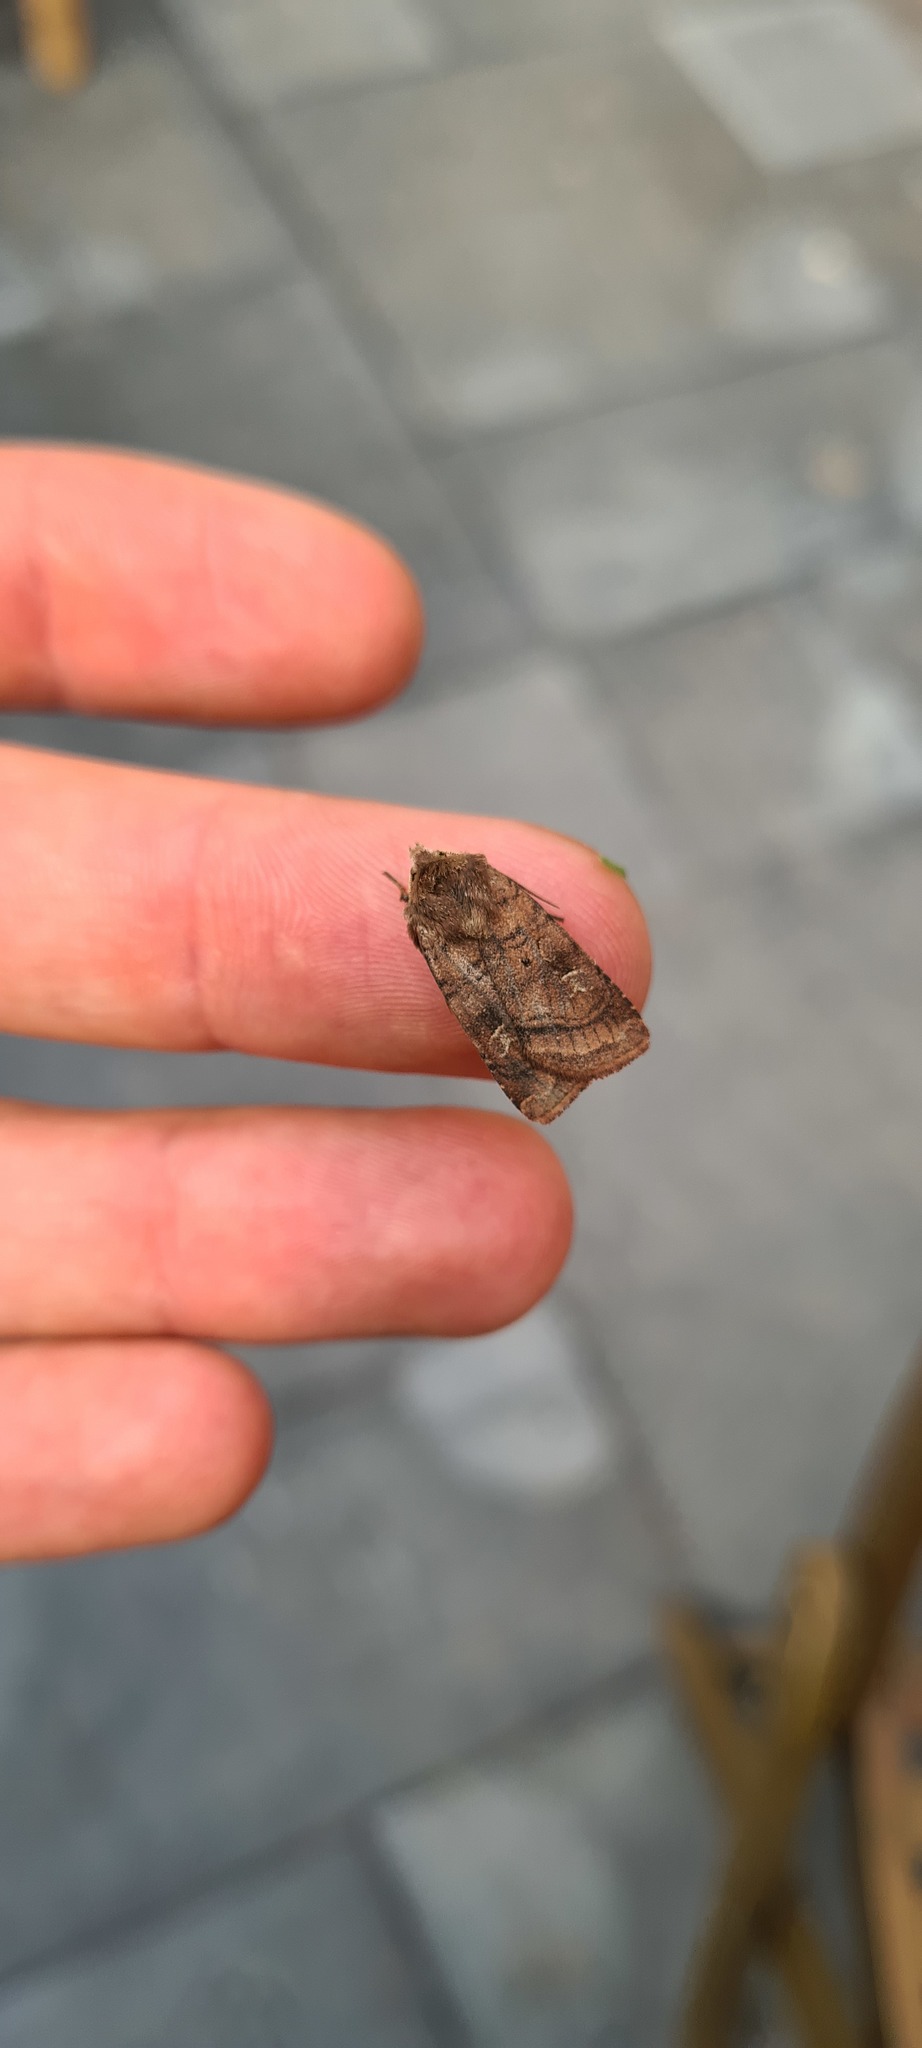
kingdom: Animalia
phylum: Arthropoda
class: Insecta
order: Lepidoptera
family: Noctuidae
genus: Diarsia
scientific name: Diarsia rubi
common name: Small square-spot
